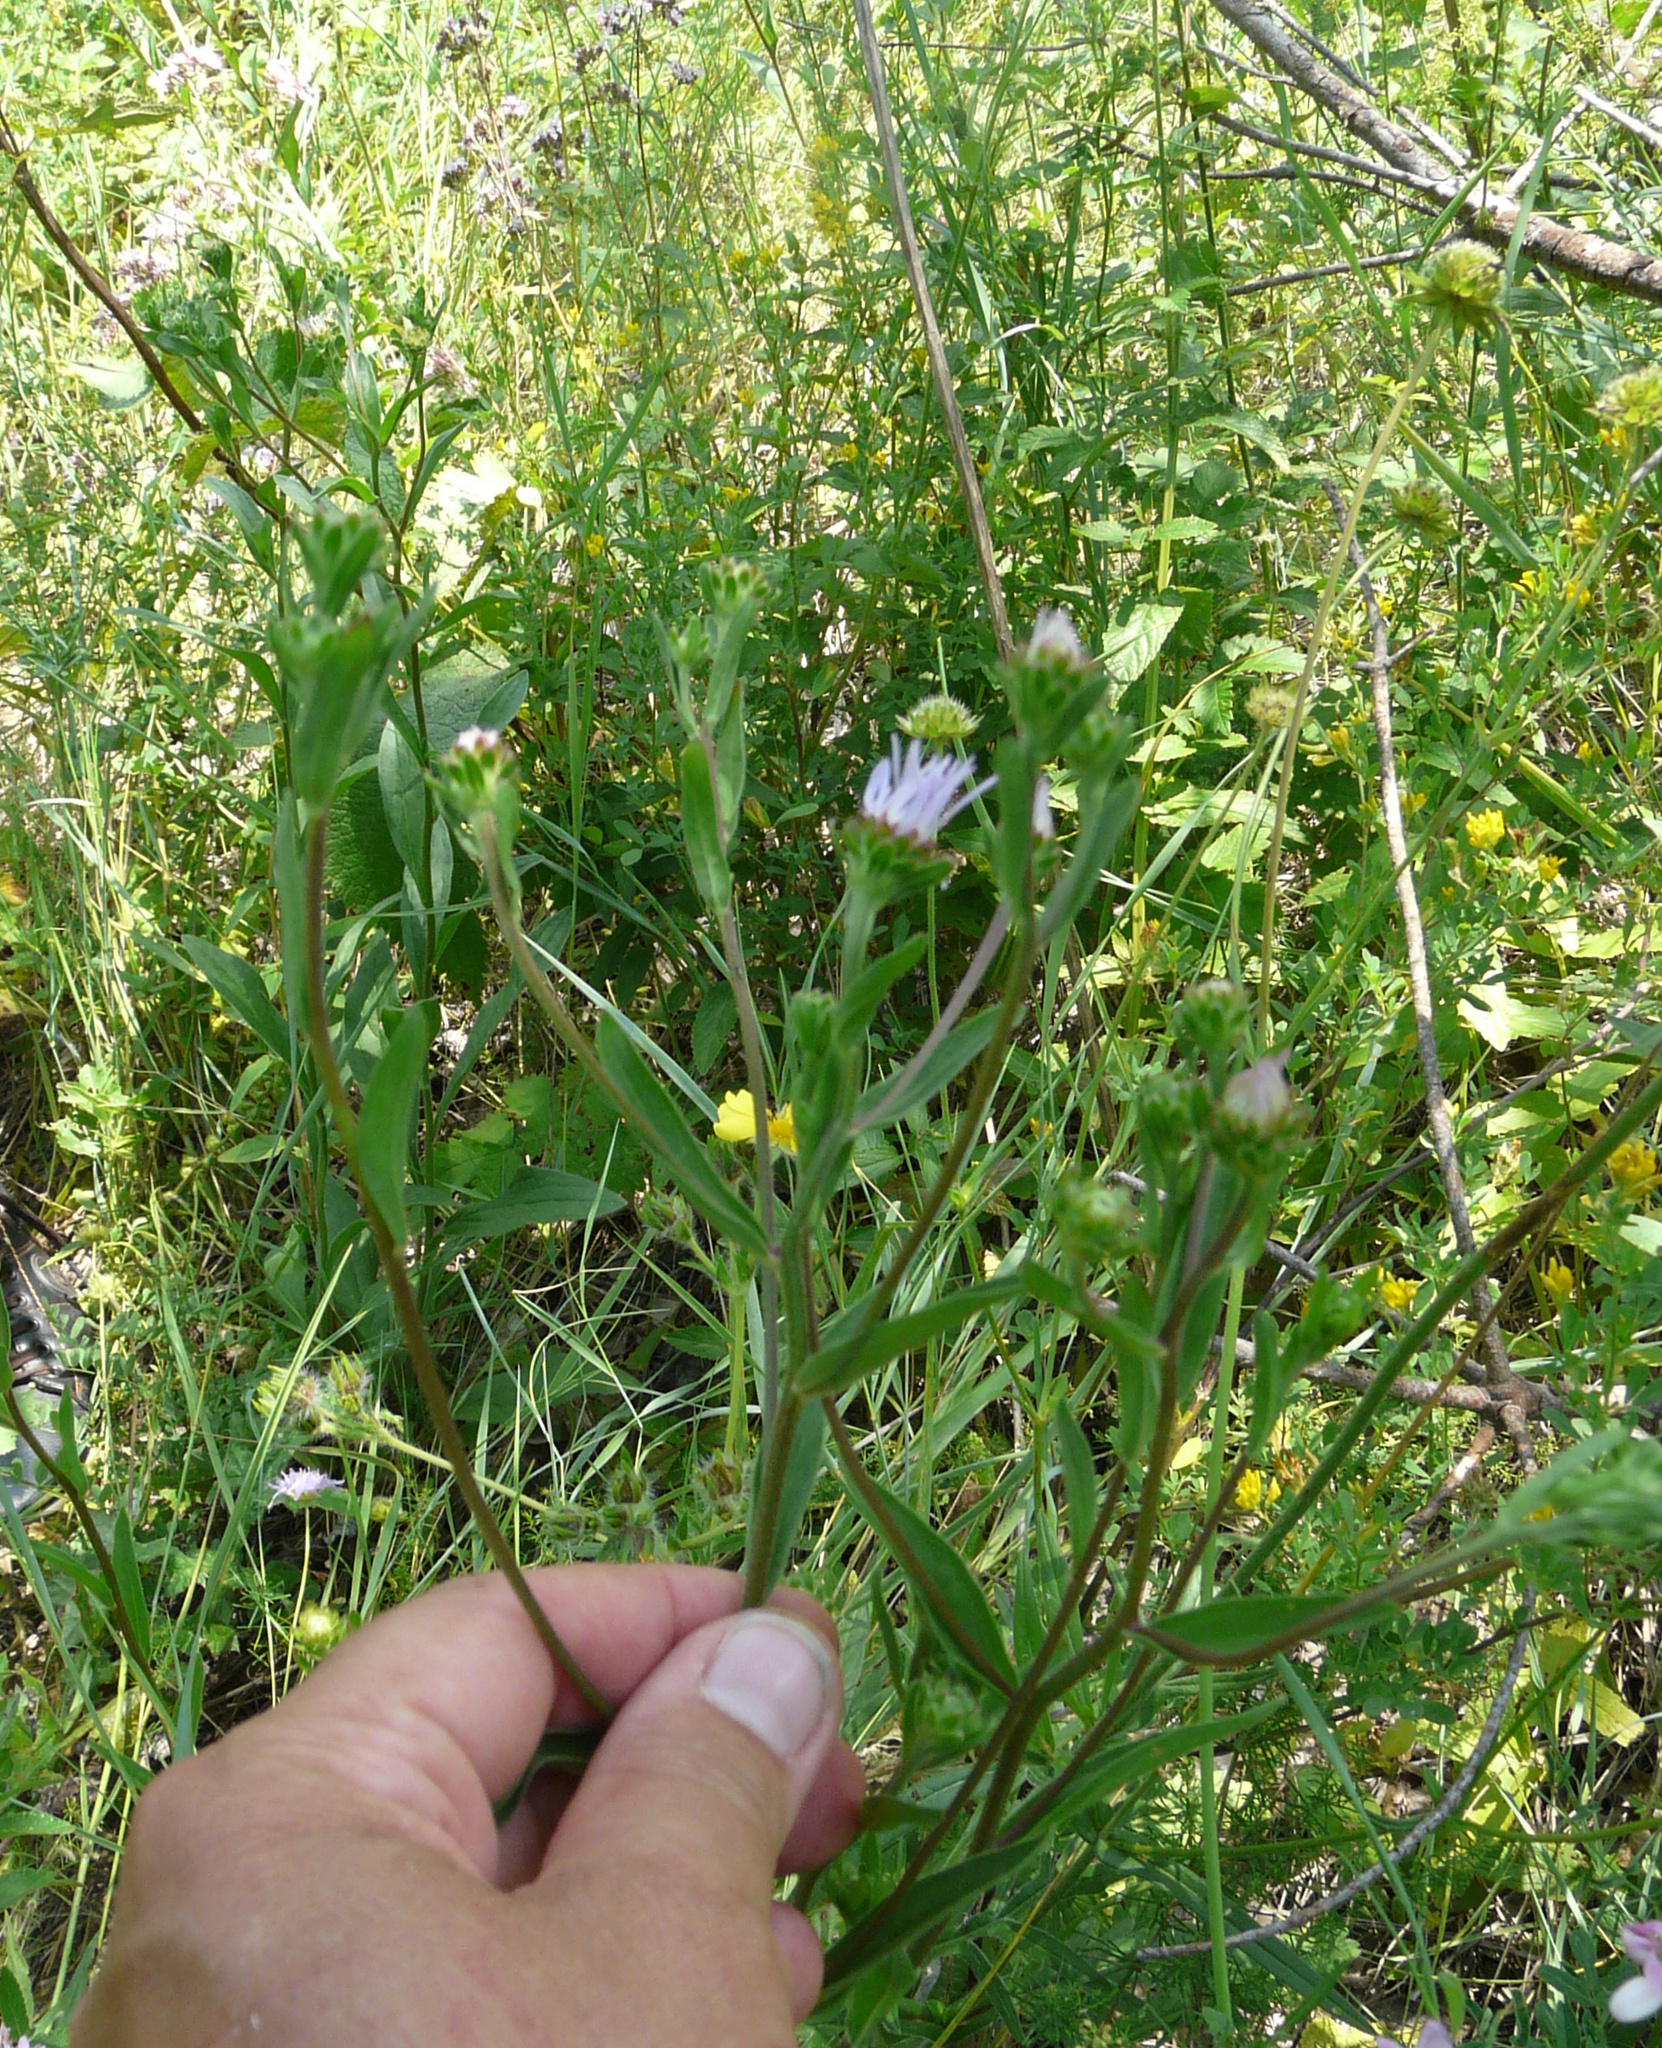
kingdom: Plantae
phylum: Tracheophyta
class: Magnoliopsida
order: Asterales
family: Asteraceae
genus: Aster
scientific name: Aster amellus
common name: European michaelmas daisy
